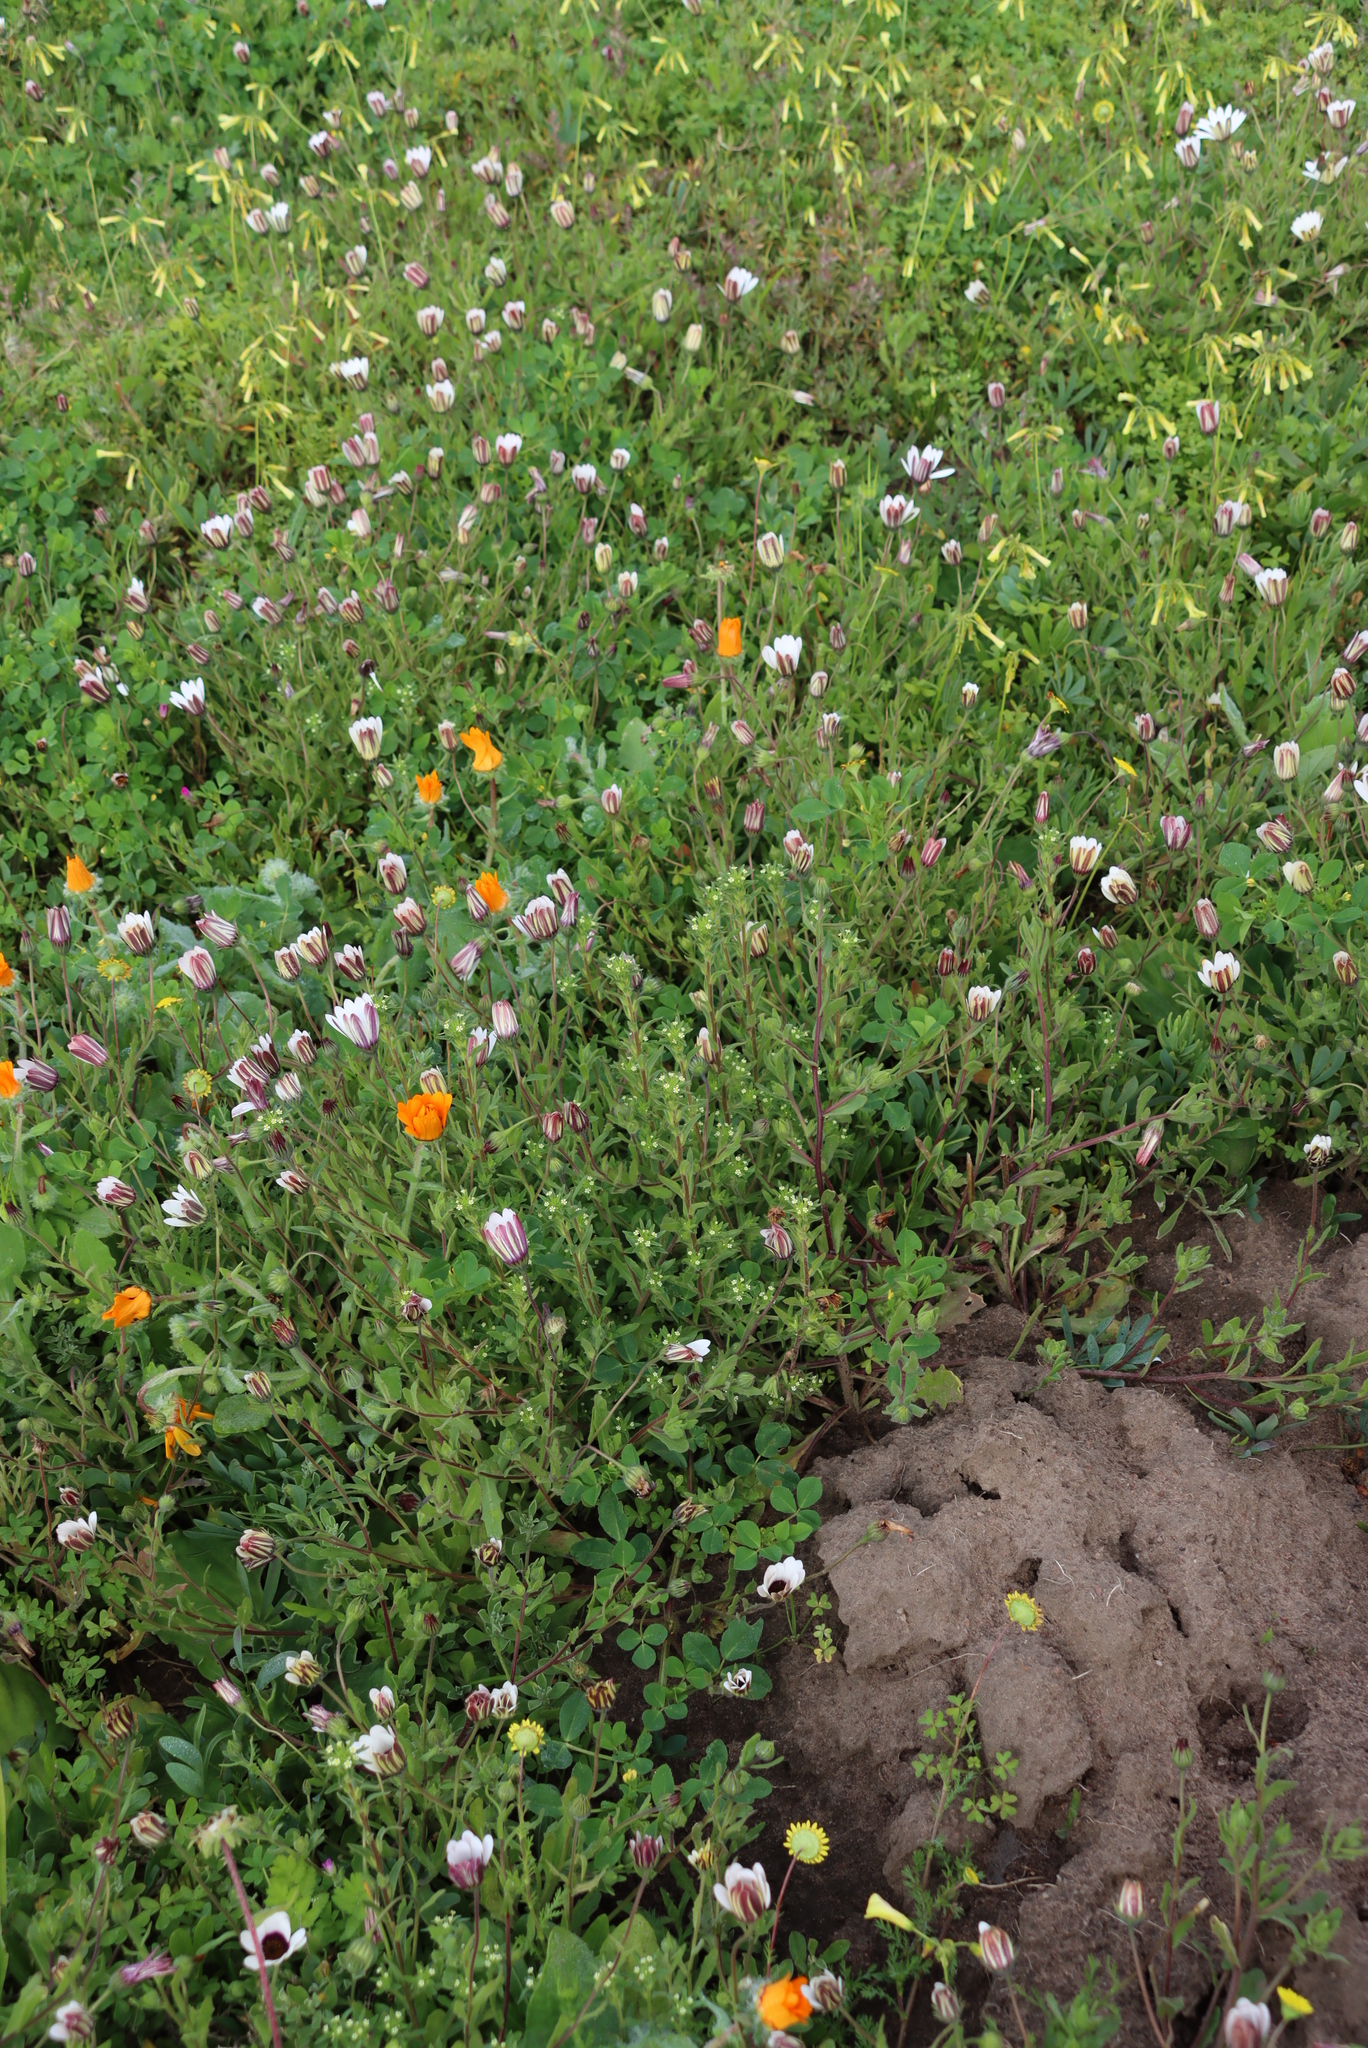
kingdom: Plantae
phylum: Tracheophyta
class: Magnoliopsida
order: Lamiales
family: Scrophulariaceae
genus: Zaluzianskya
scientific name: Zaluzianskya parviflora
